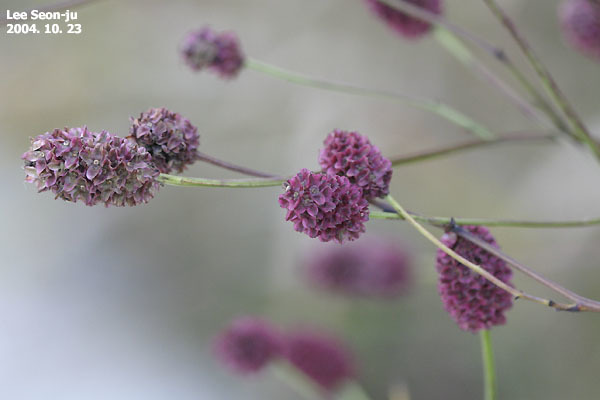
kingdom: Plantae
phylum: Tracheophyta
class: Magnoliopsida
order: Rosales
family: Rosaceae
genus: Sanguisorba
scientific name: Sanguisorba officinalis
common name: Great burnet
